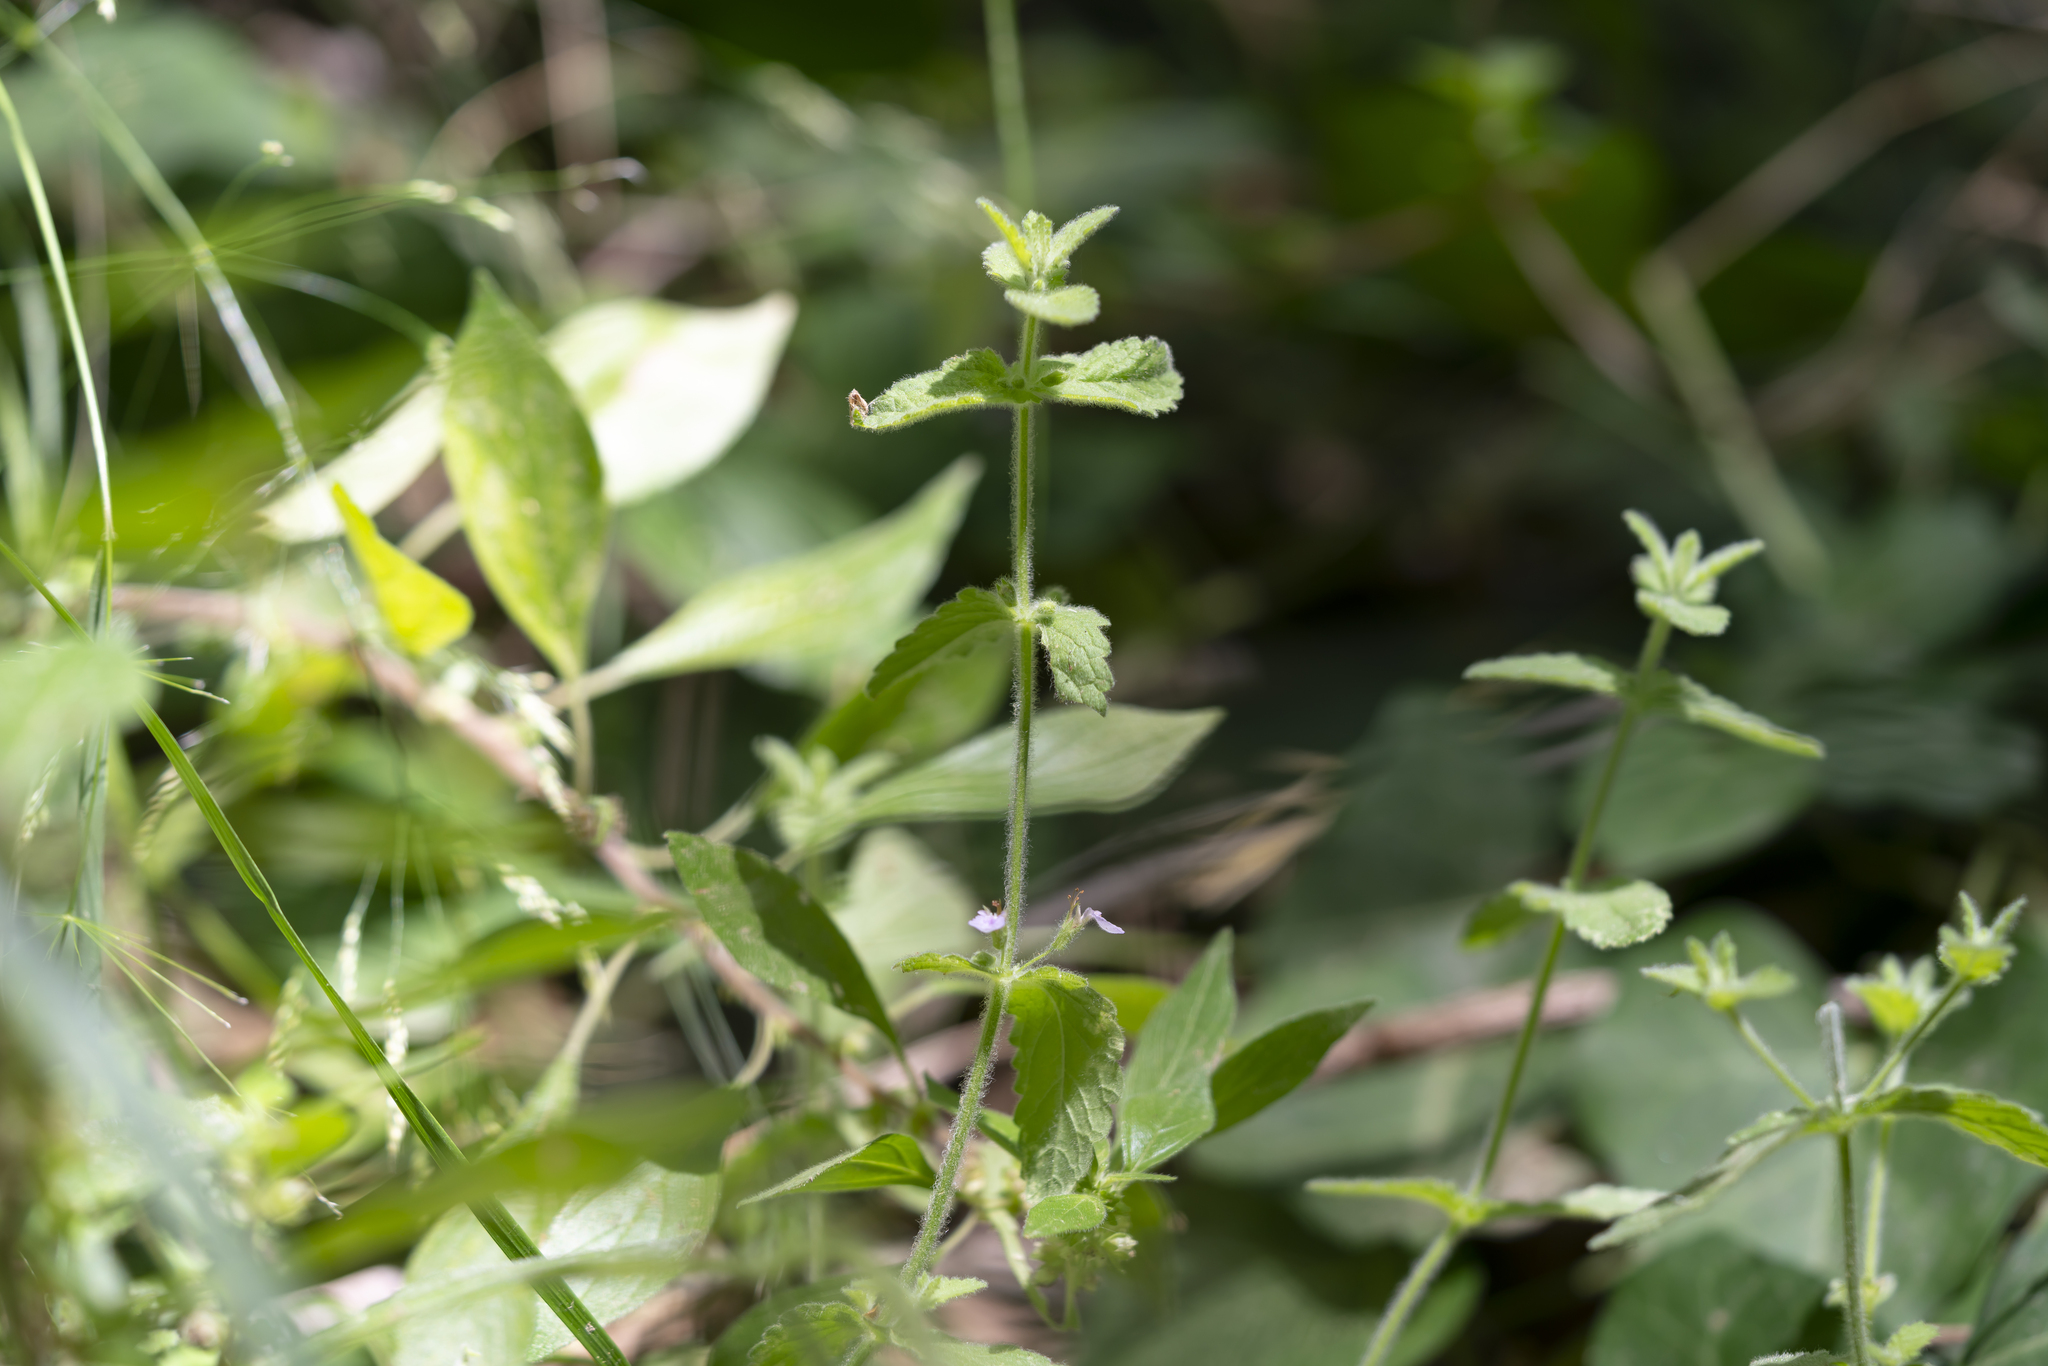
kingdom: Plantae
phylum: Tracheophyta
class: Magnoliopsida
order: Lamiales
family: Lamiaceae
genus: Teucrium
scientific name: Teucrium scordium
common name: Water germander
